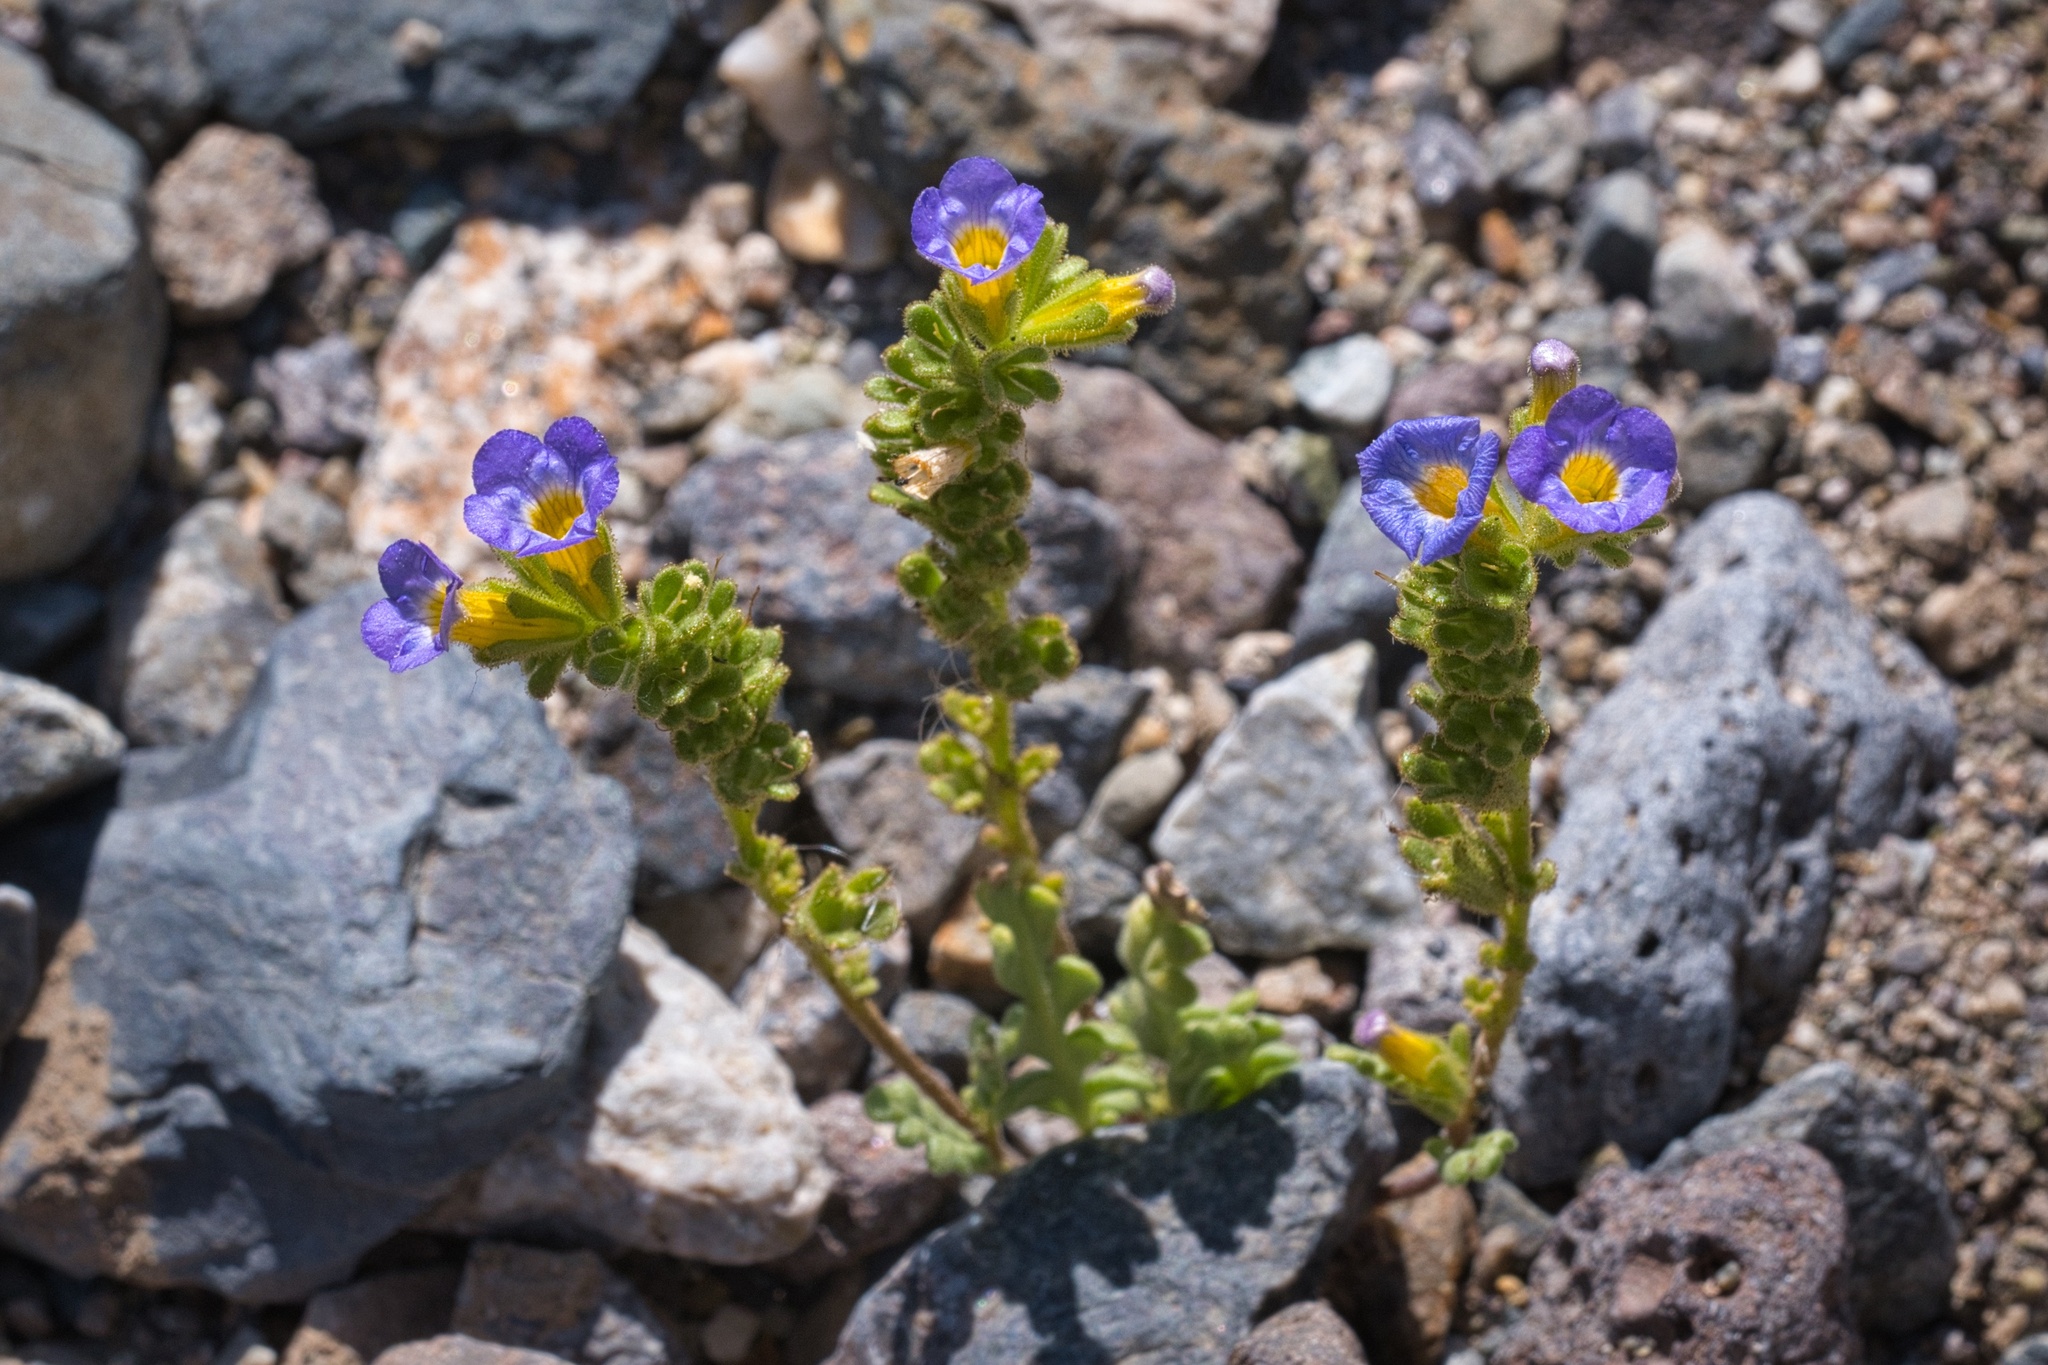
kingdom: Plantae
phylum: Tracheophyta
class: Magnoliopsida
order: Boraginales
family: Hydrophyllaceae
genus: Phacelia
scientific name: Phacelia fremontii
